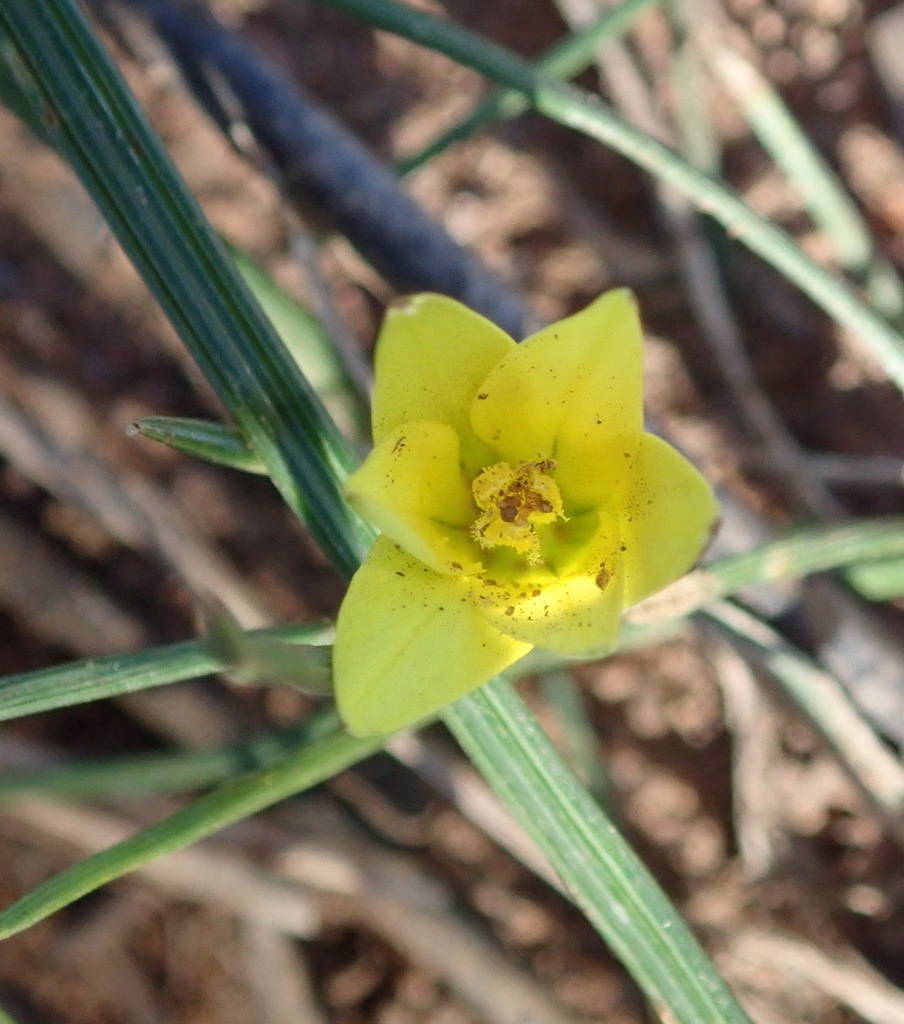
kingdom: Plantae
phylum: Tracheophyta
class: Liliopsida
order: Asparagales
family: Iridaceae
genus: Romulea
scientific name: Romulea flava
